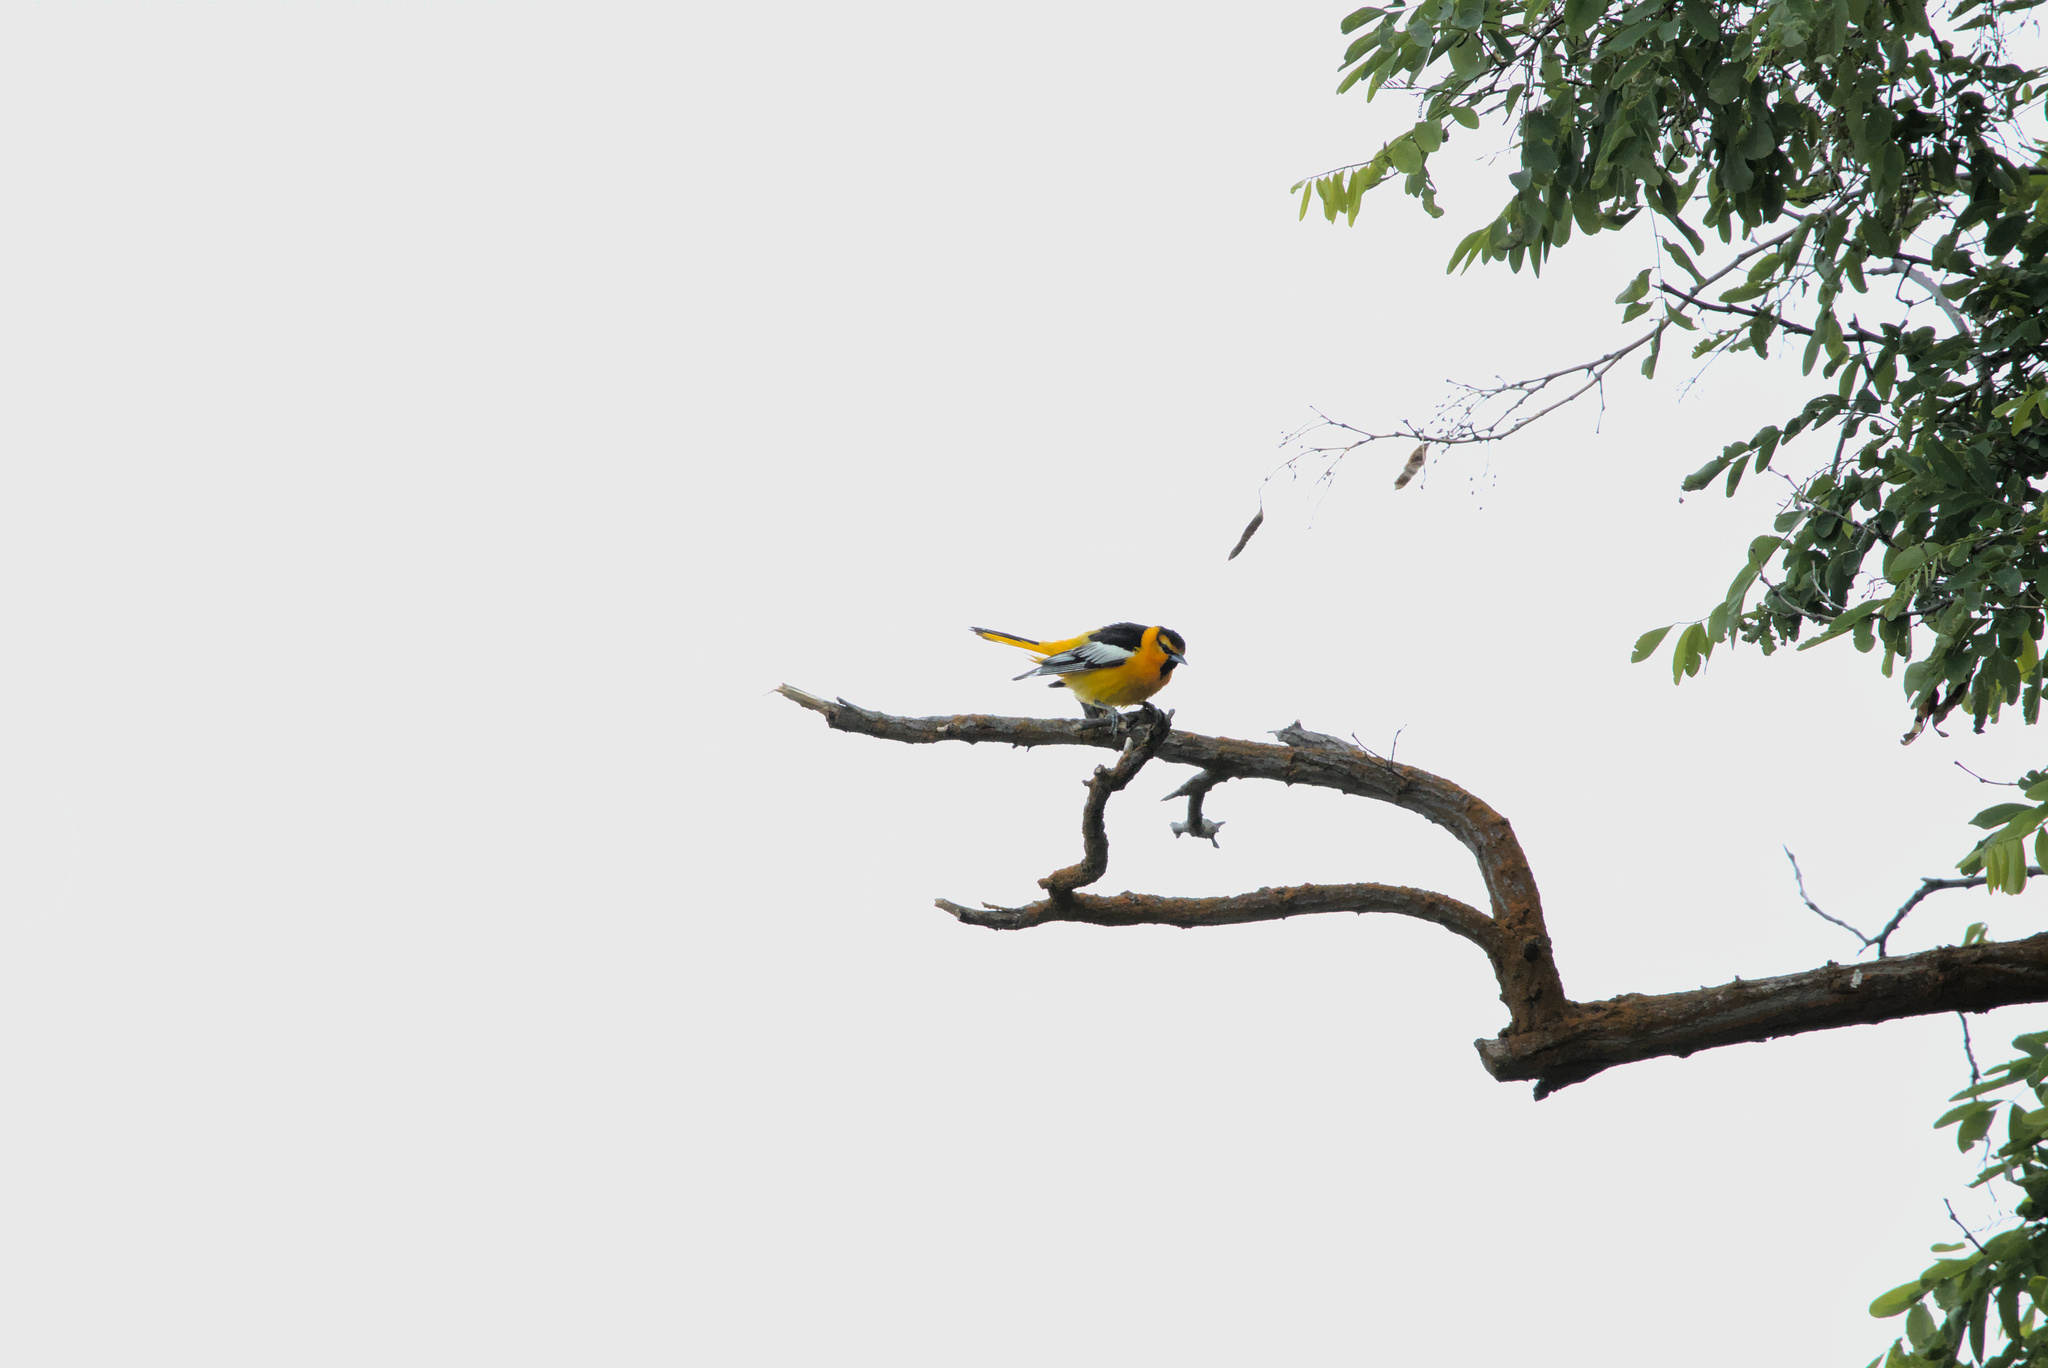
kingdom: Animalia
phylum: Chordata
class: Aves
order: Passeriformes
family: Icteridae
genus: Icterus
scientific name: Icterus bullockii
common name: Bullock's oriole
